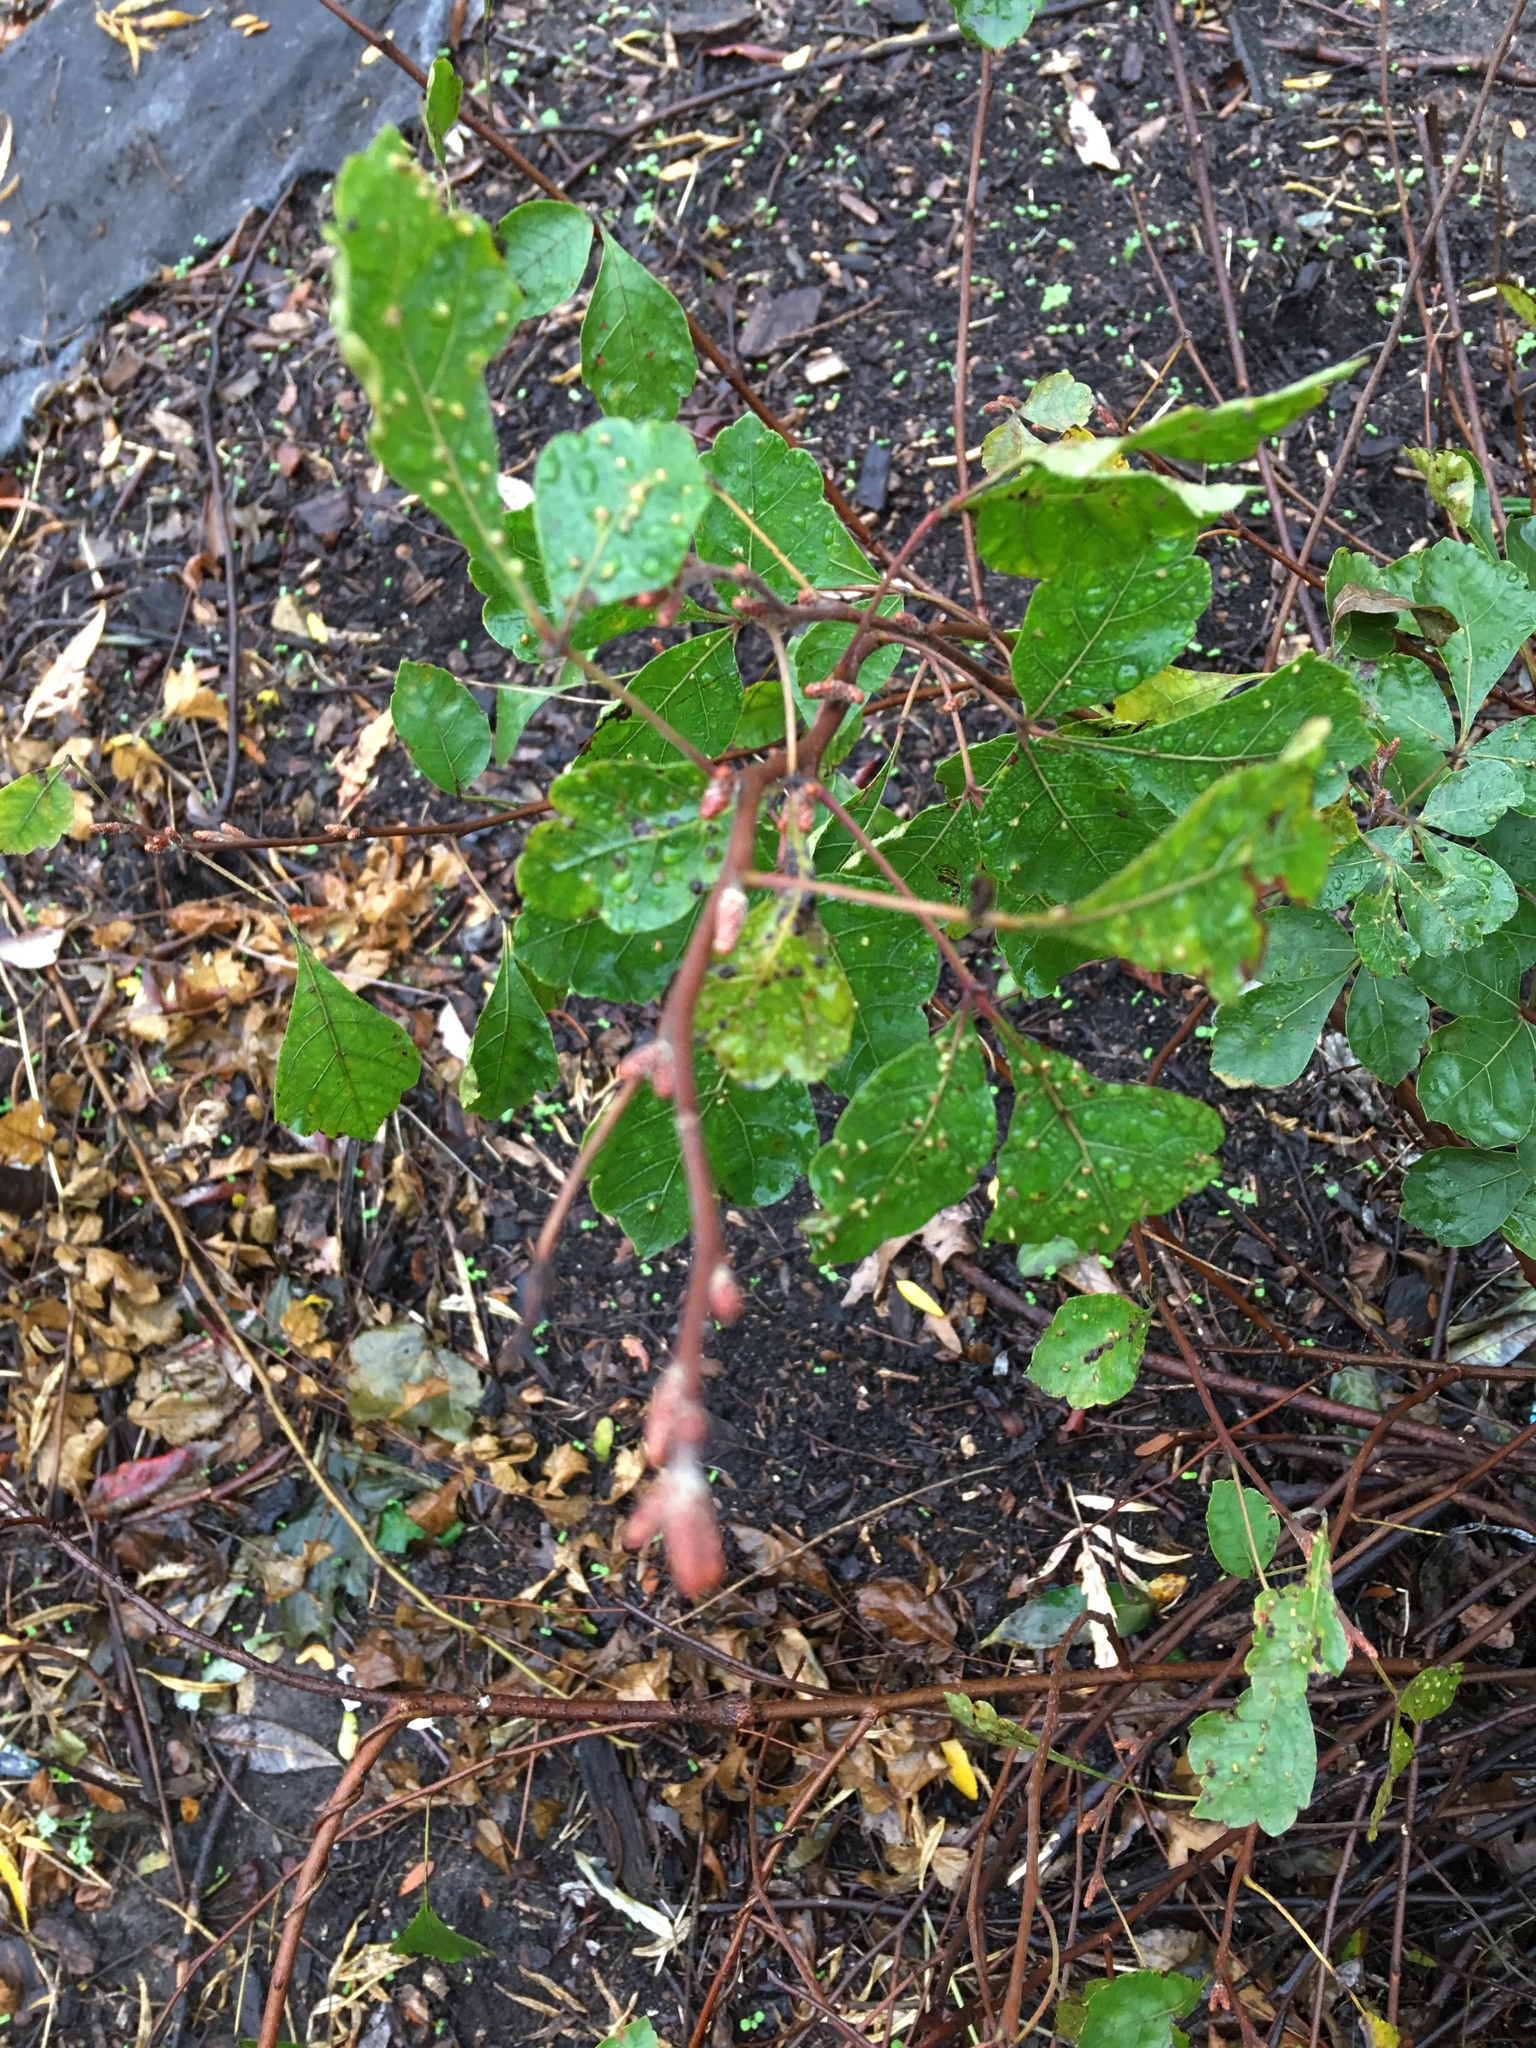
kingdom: Plantae
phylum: Tracheophyta
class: Magnoliopsida
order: Sapindales
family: Anacardiaceae
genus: Rhus
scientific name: Rhus aromatica
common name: Aromatic sumac
